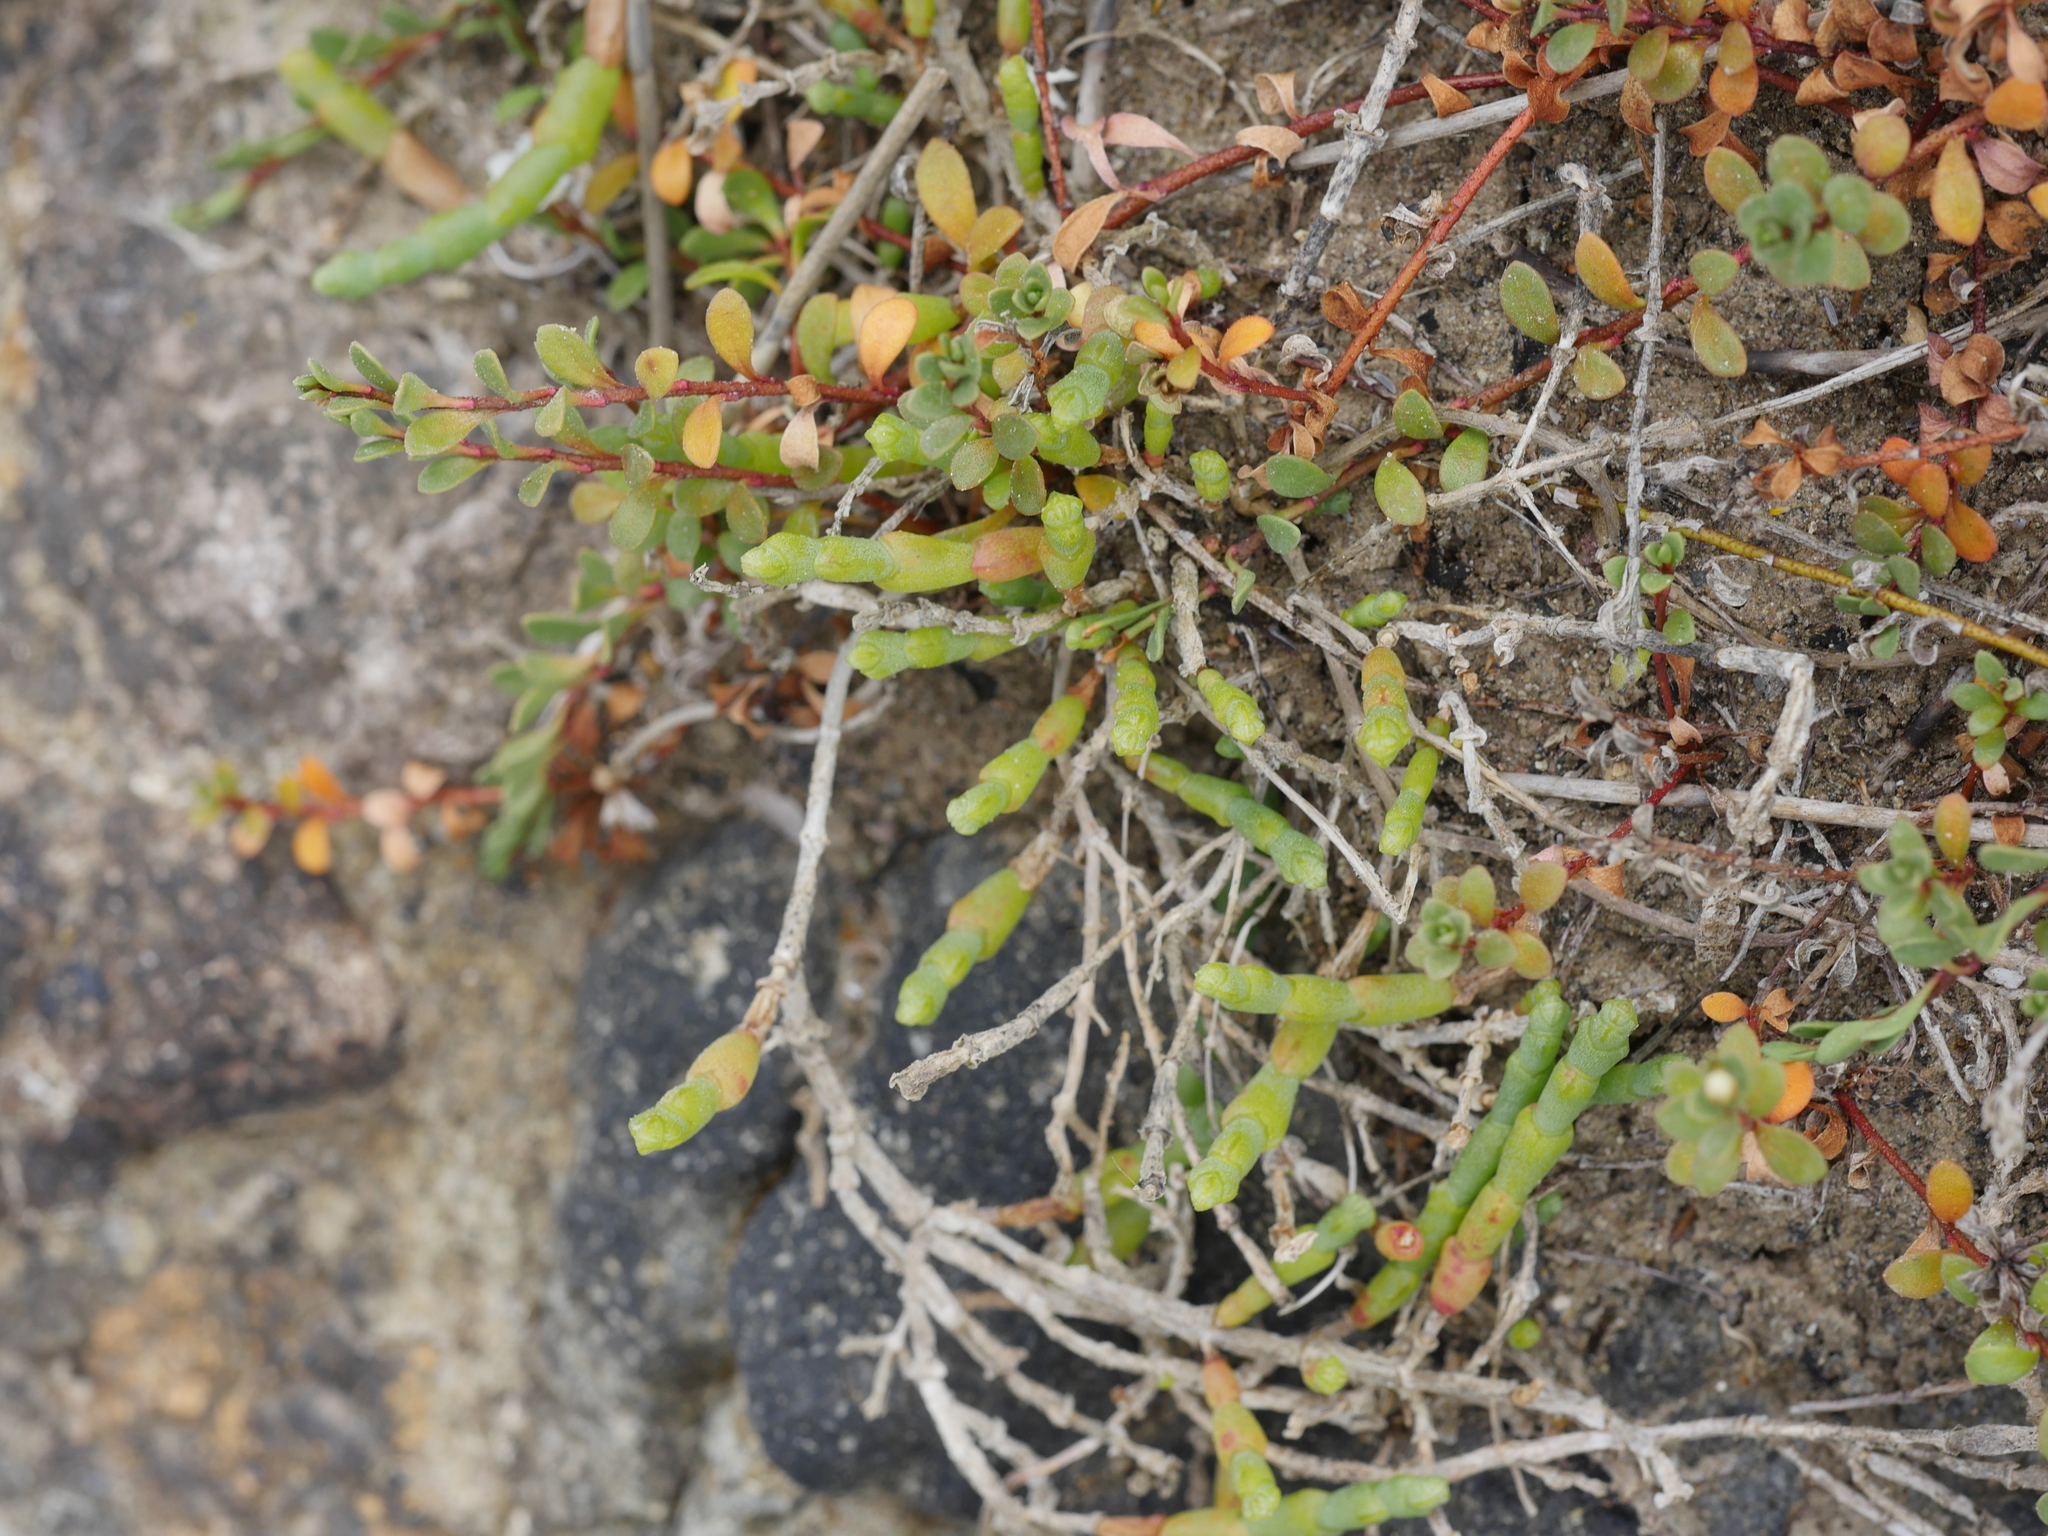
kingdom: Plantae
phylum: Tracheophyta
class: Magnoliopsida
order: Caryophyllales
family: Amaranthaceae
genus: Salicornia
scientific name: Salicornia quinqueflora
